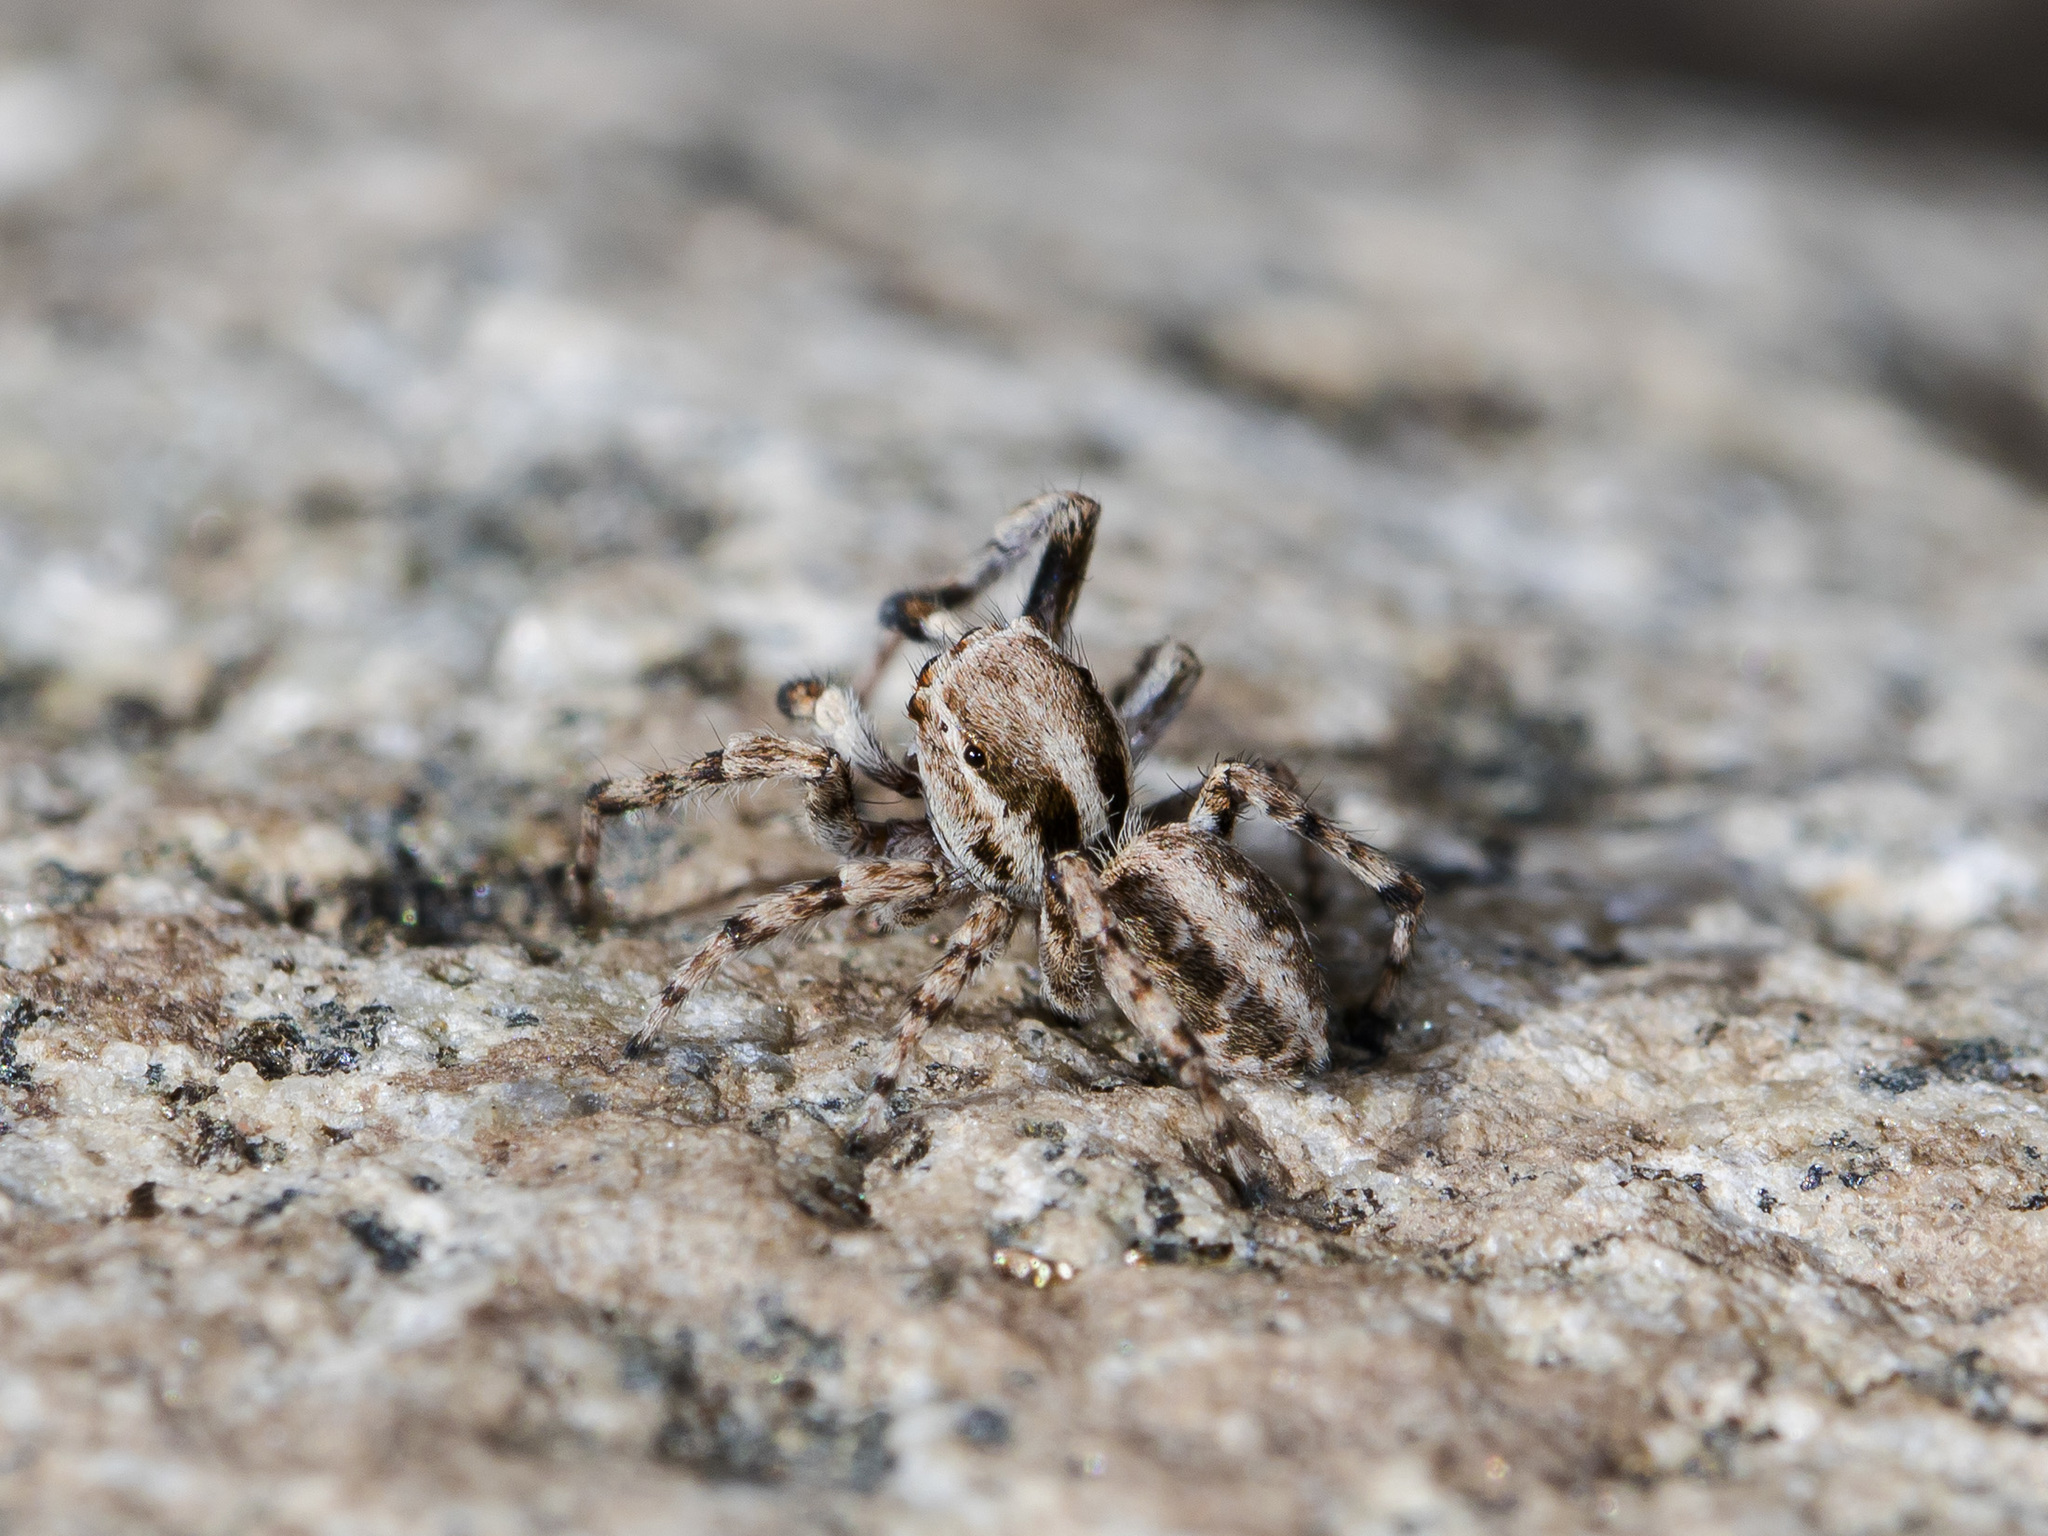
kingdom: Animalia
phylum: Arthropoda
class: Arachnida
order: Araneae
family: Salticidae
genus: Attulus
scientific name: Attulus avocator
